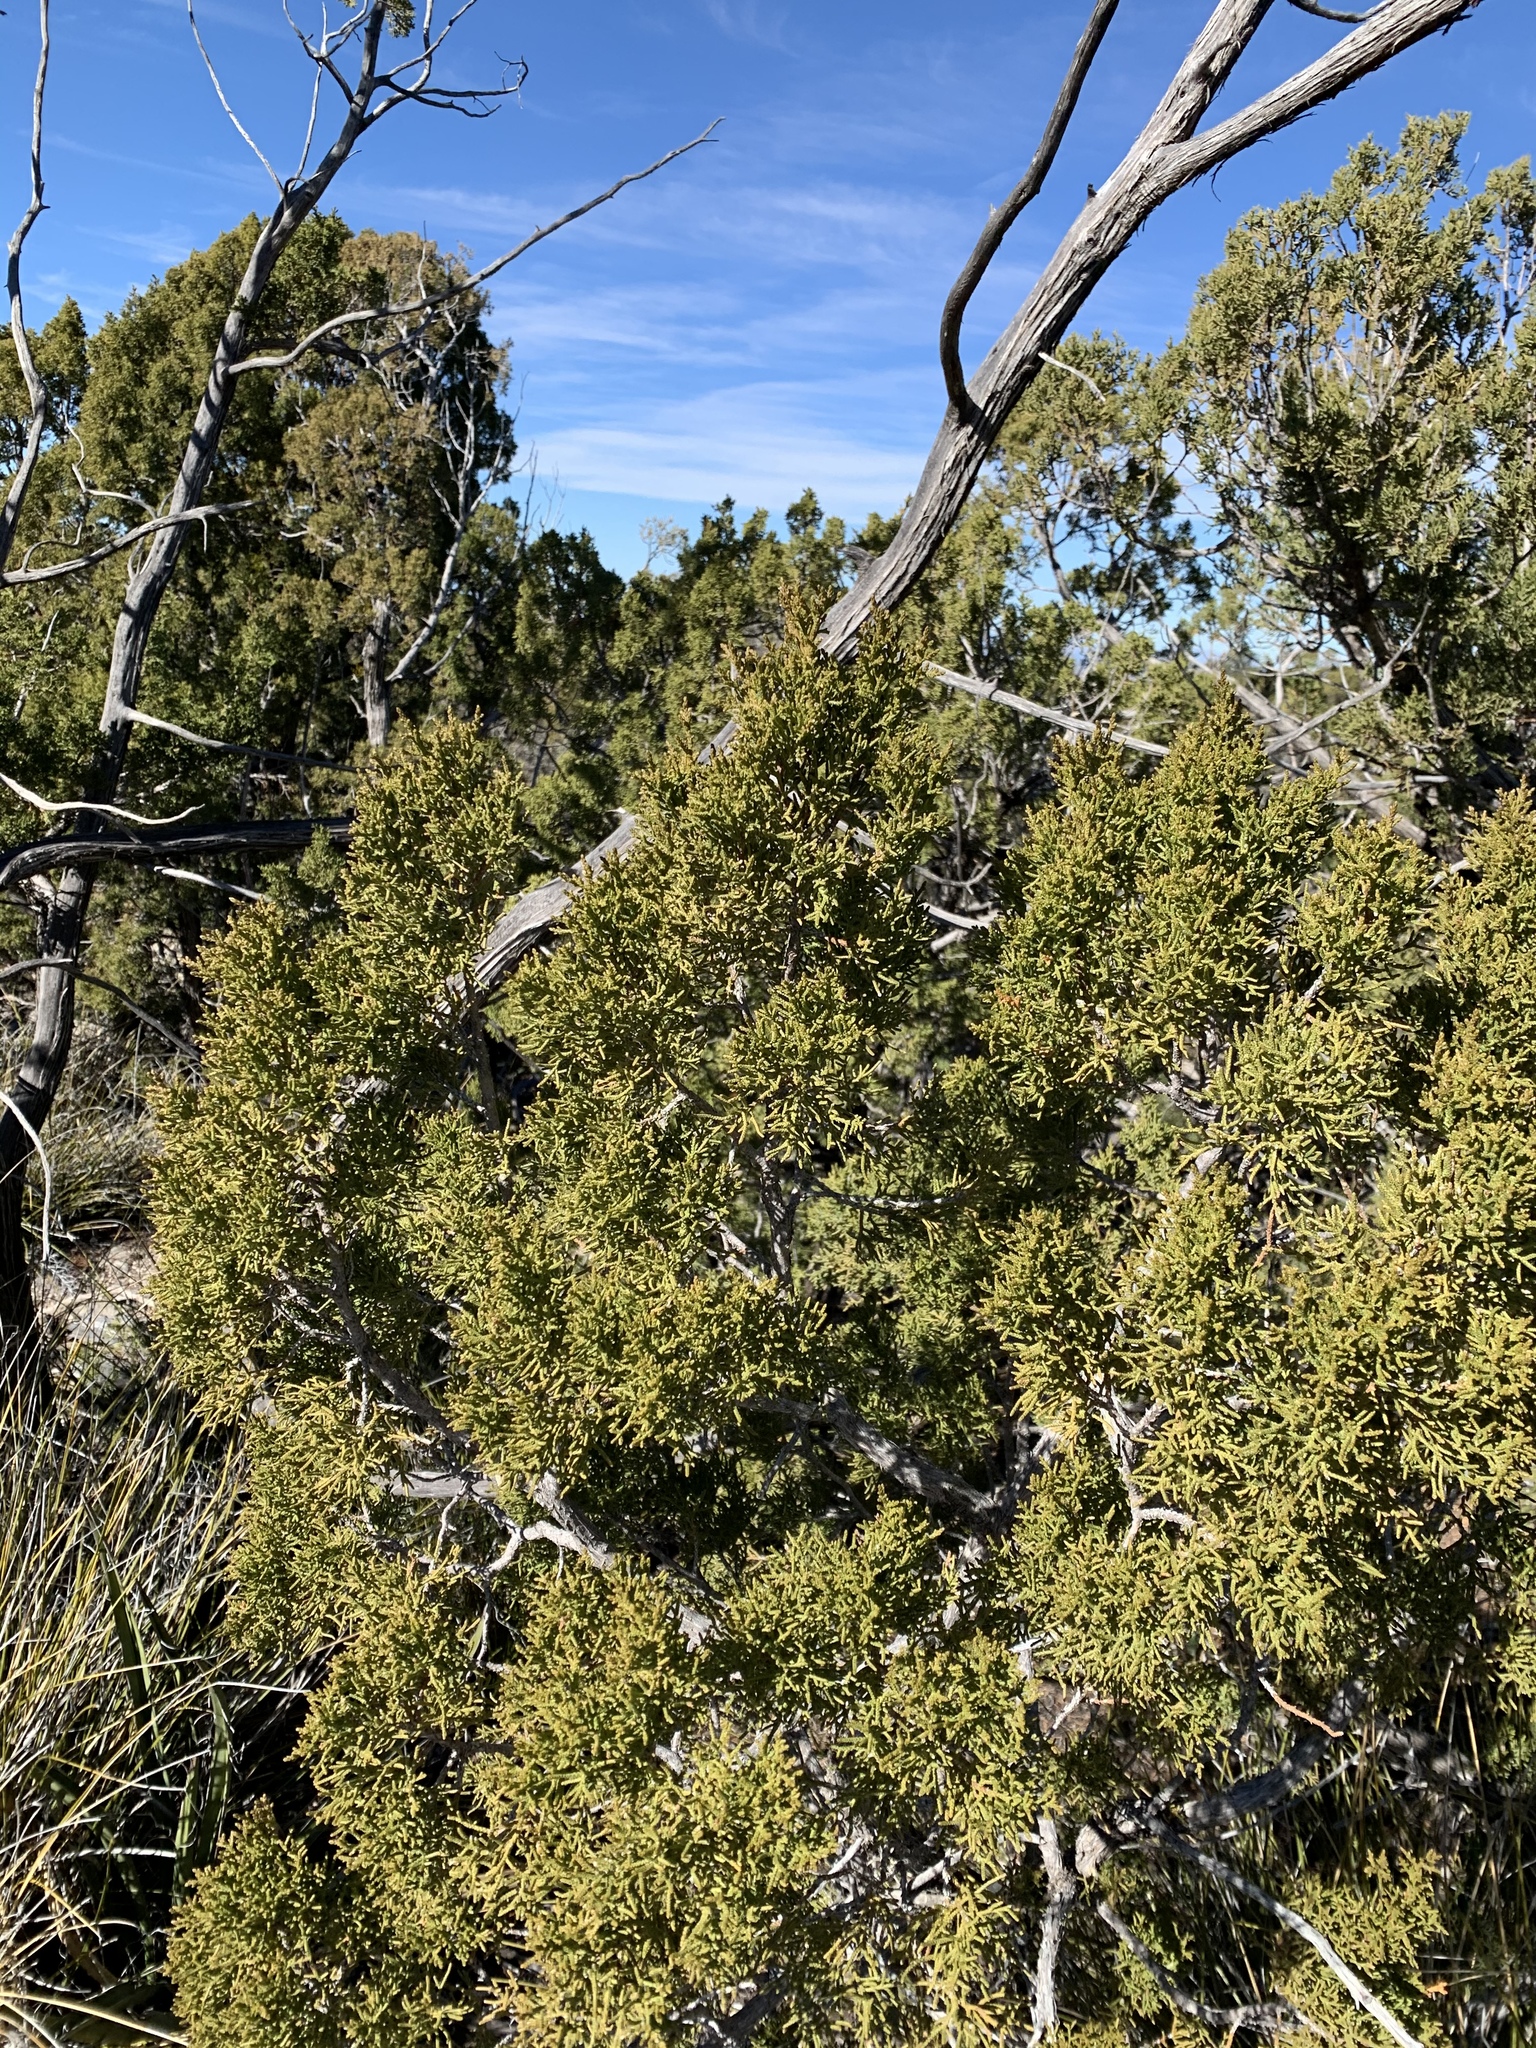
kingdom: Plantae
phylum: Tracheophyta
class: Pinopsida
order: Pinales
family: Cupressaceae
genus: Juniperus
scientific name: Juniperus monosperma
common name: One-seed juniper
